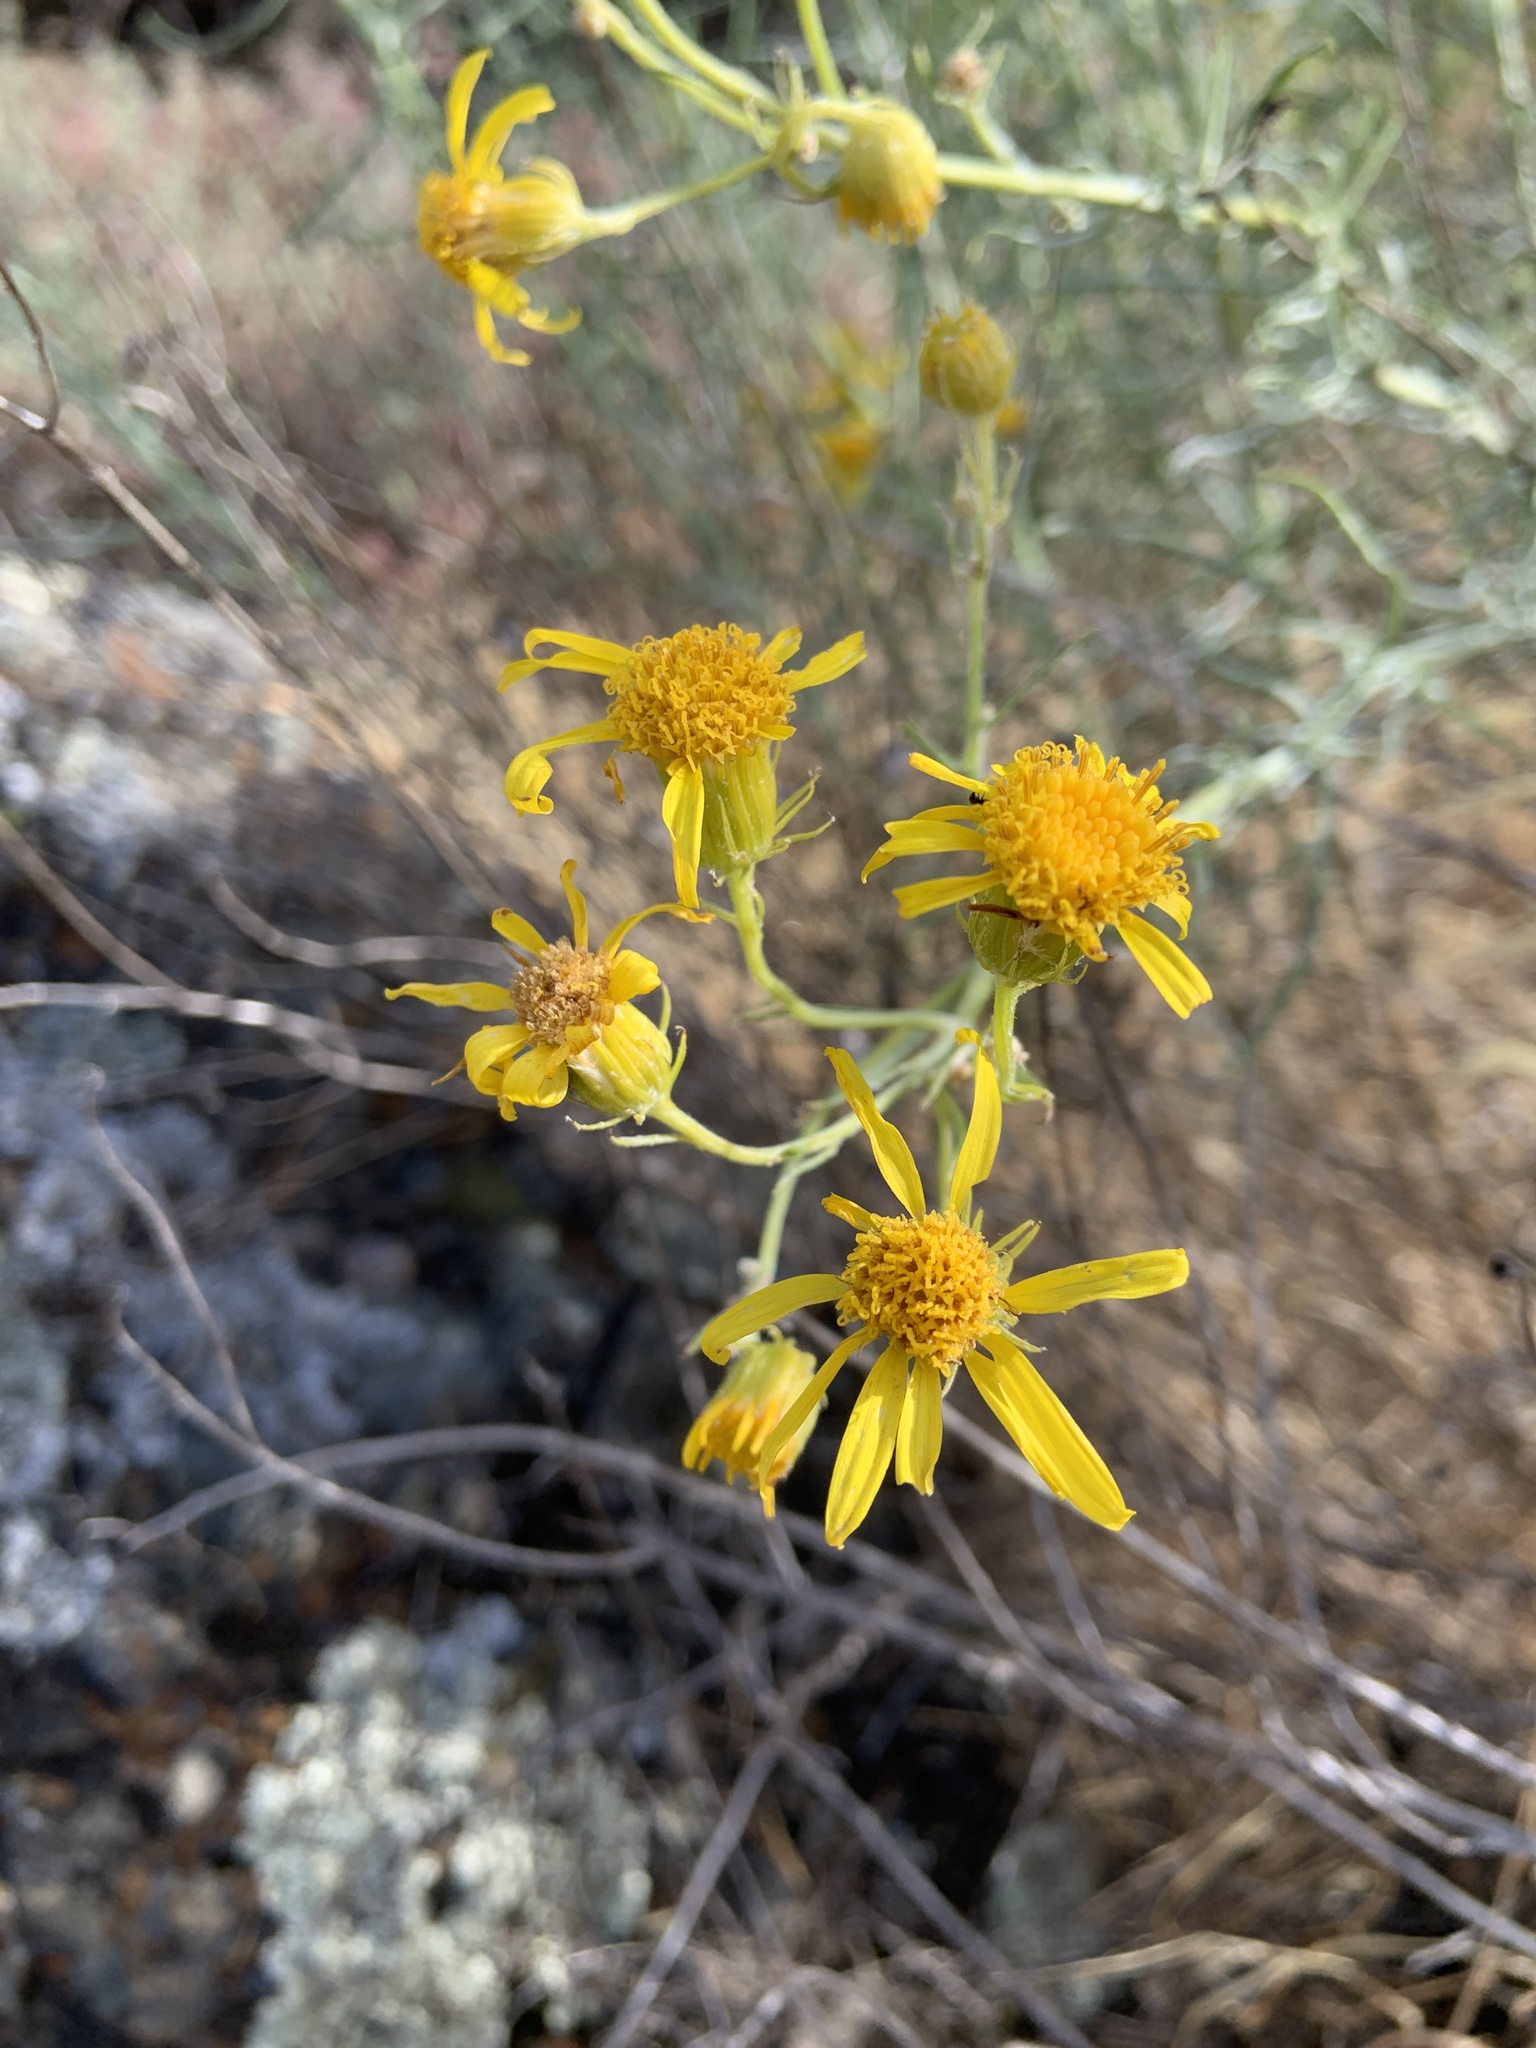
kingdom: Plantae
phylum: Tracheophyta
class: Magnoliopsida
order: Asterales
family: Asteraceae
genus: Senecio
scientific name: Senecio flaccidus
